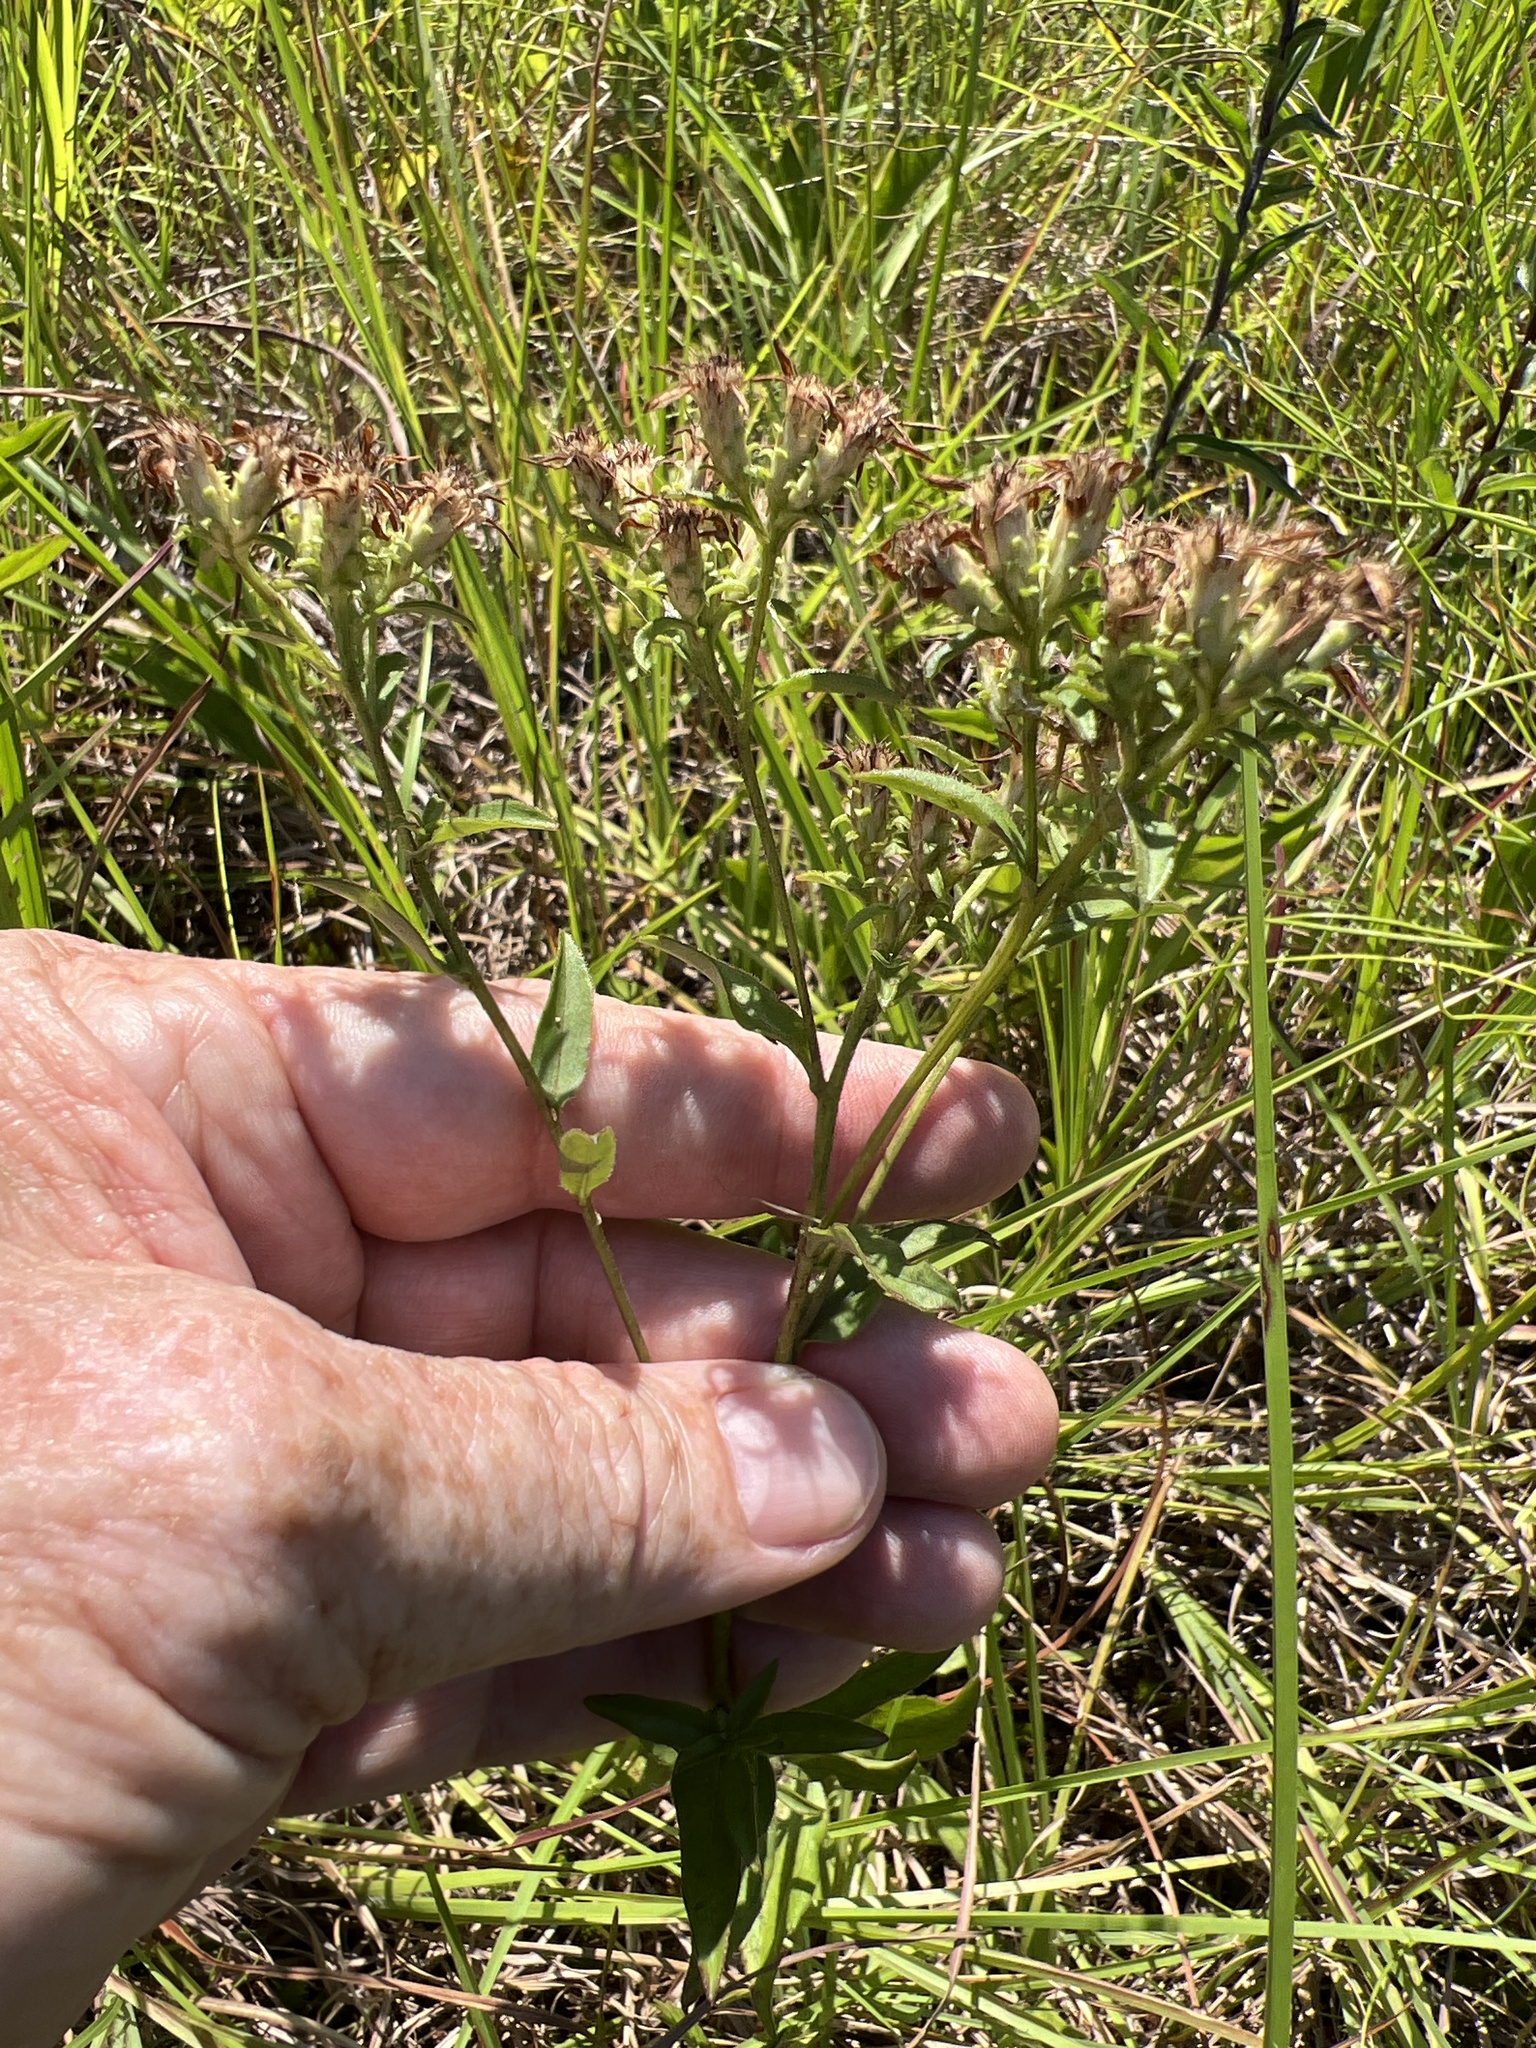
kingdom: Plantae
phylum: Tracheophyta
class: Magnoliopsida
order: Asterales
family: Asteraceae
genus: Sericocarpus
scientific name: Sericocarpus asteroides
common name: Toothed white-top aster
